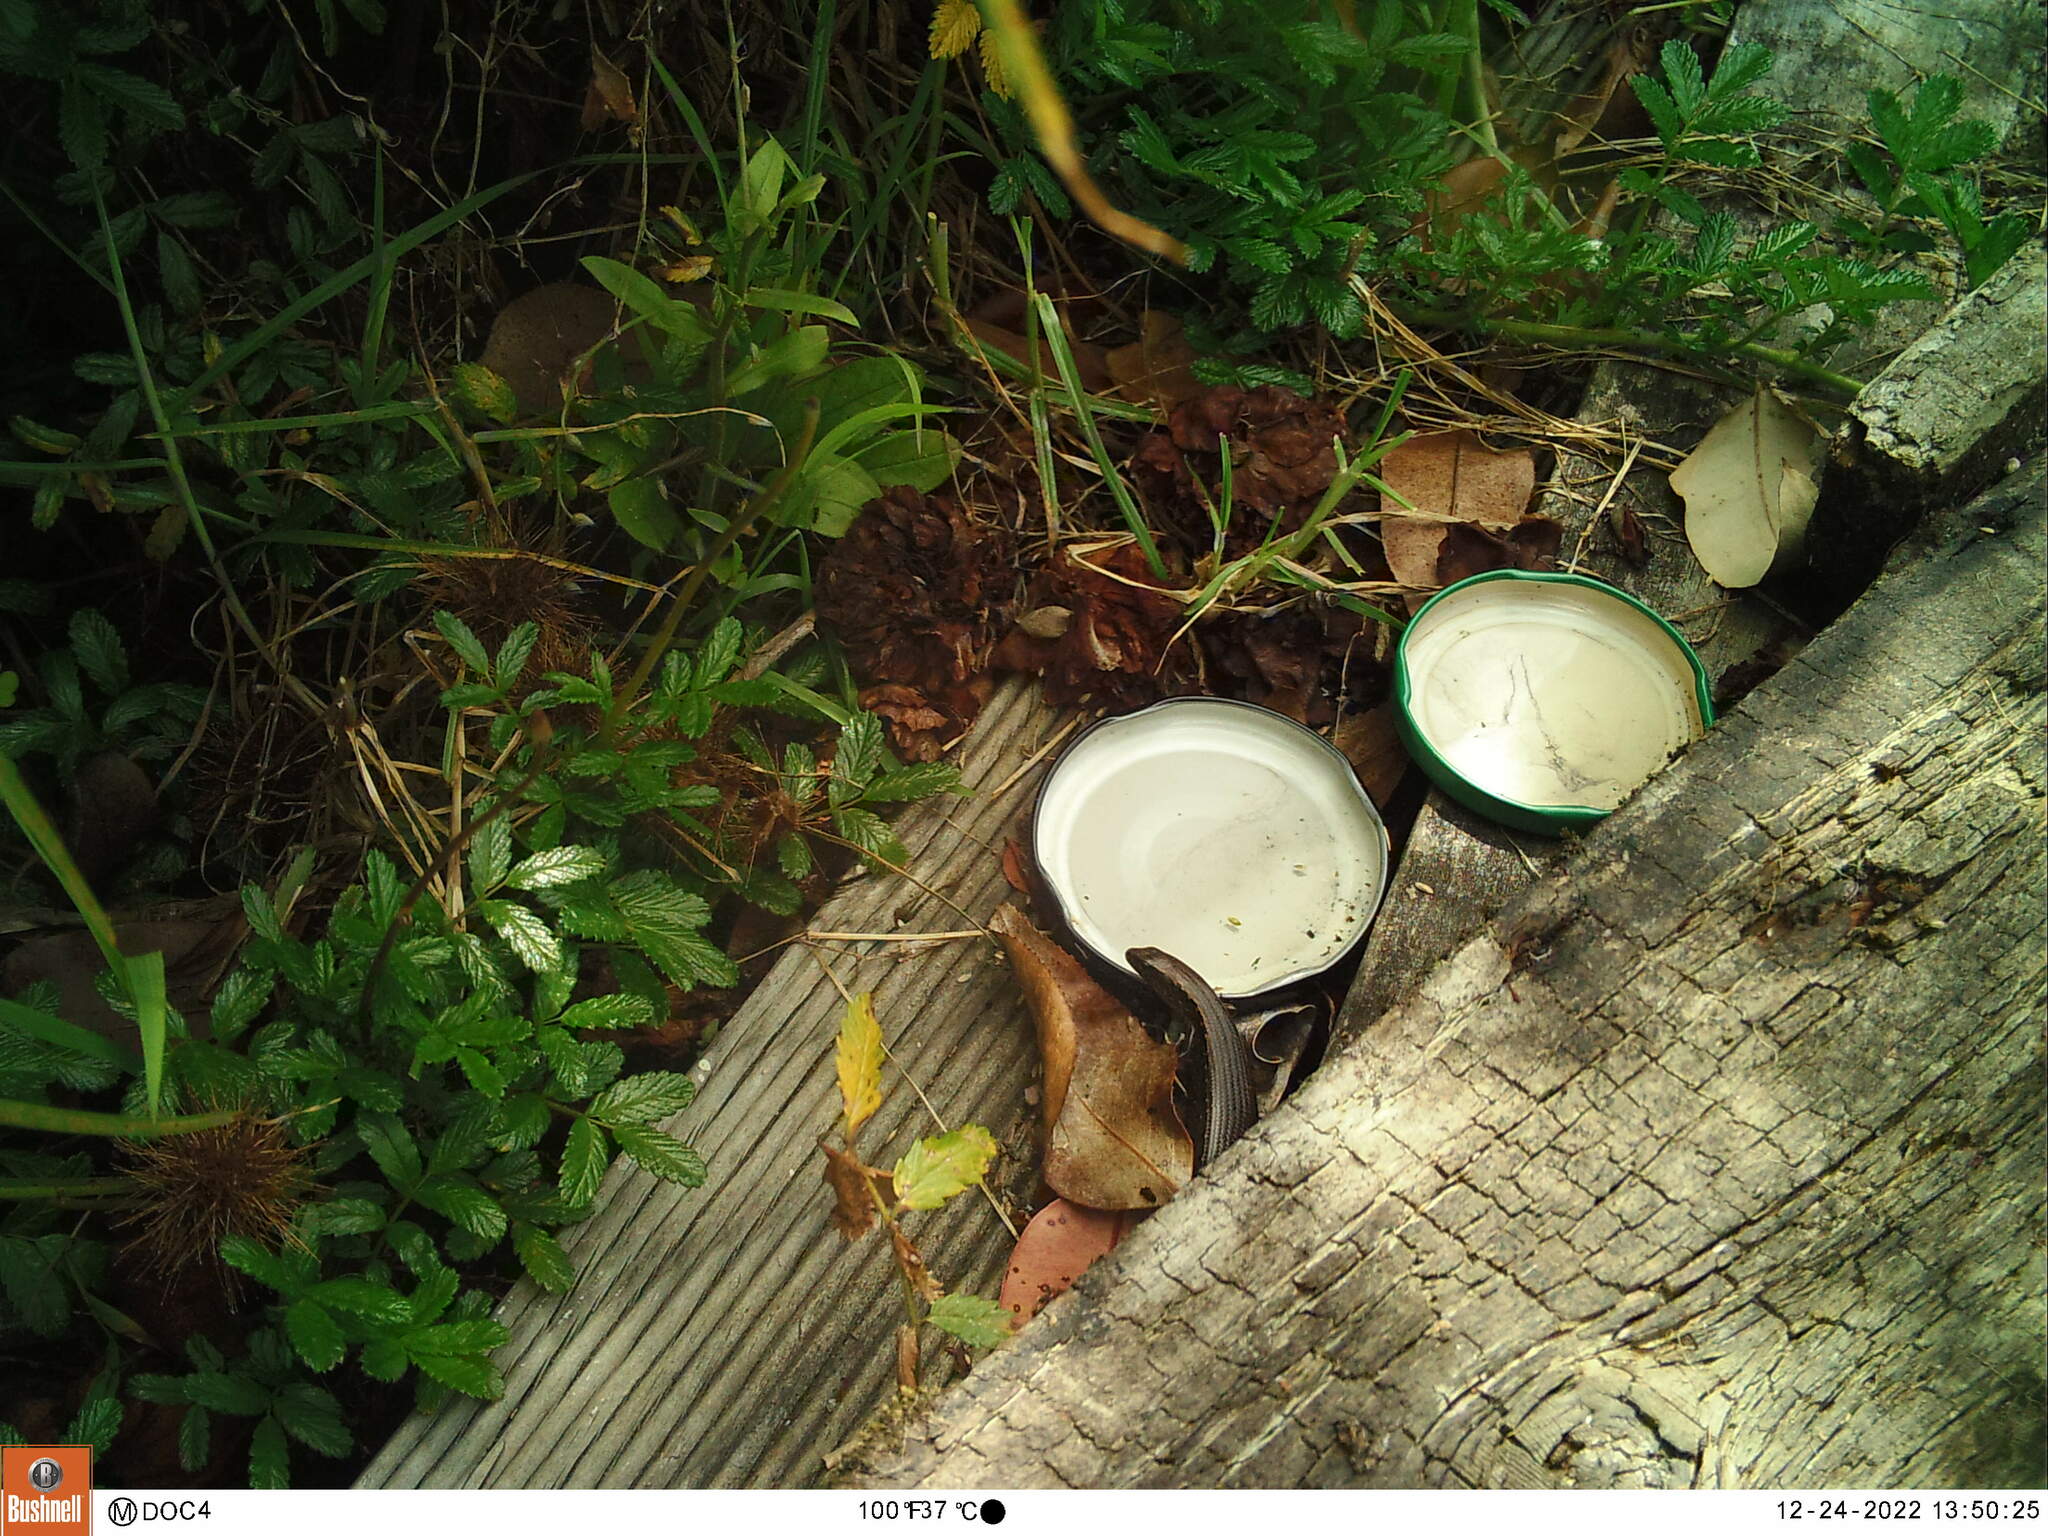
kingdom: Animalia
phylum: Chordata
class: Squamata
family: Scincidae
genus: Oligosoma
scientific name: Oligosoma aeneum
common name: Copper skink
